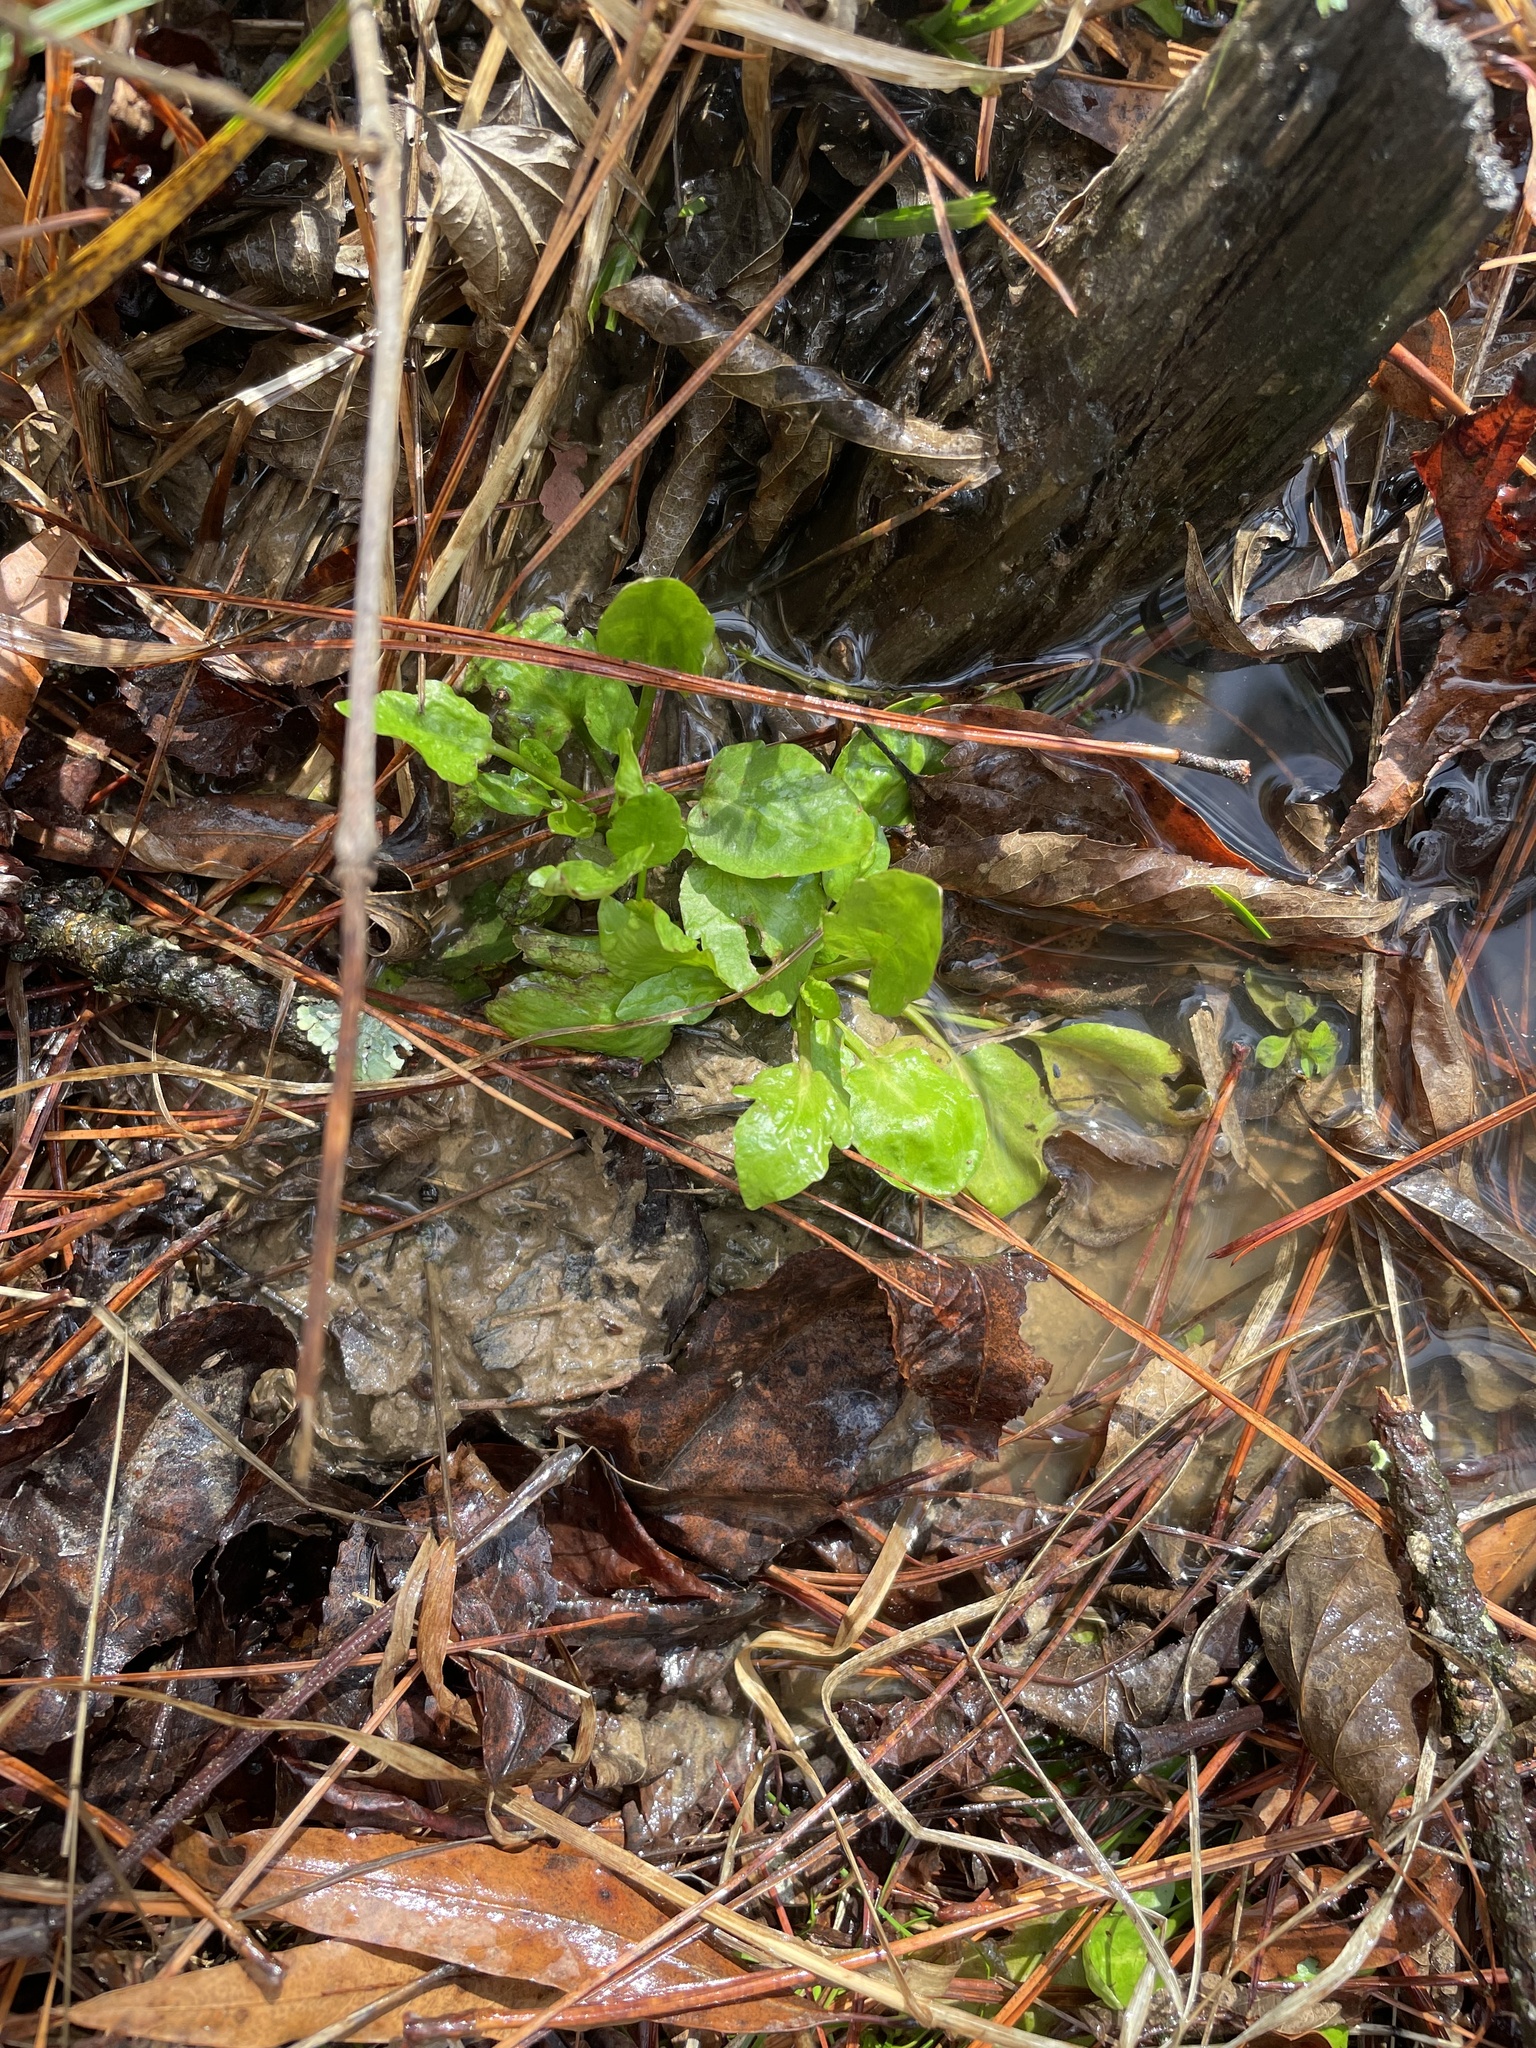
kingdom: Plantae
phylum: Tracheophyta
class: Magnoliopsida
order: Apiales
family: Apiaceae
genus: Eryngium
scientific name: Eryngium prostratum
